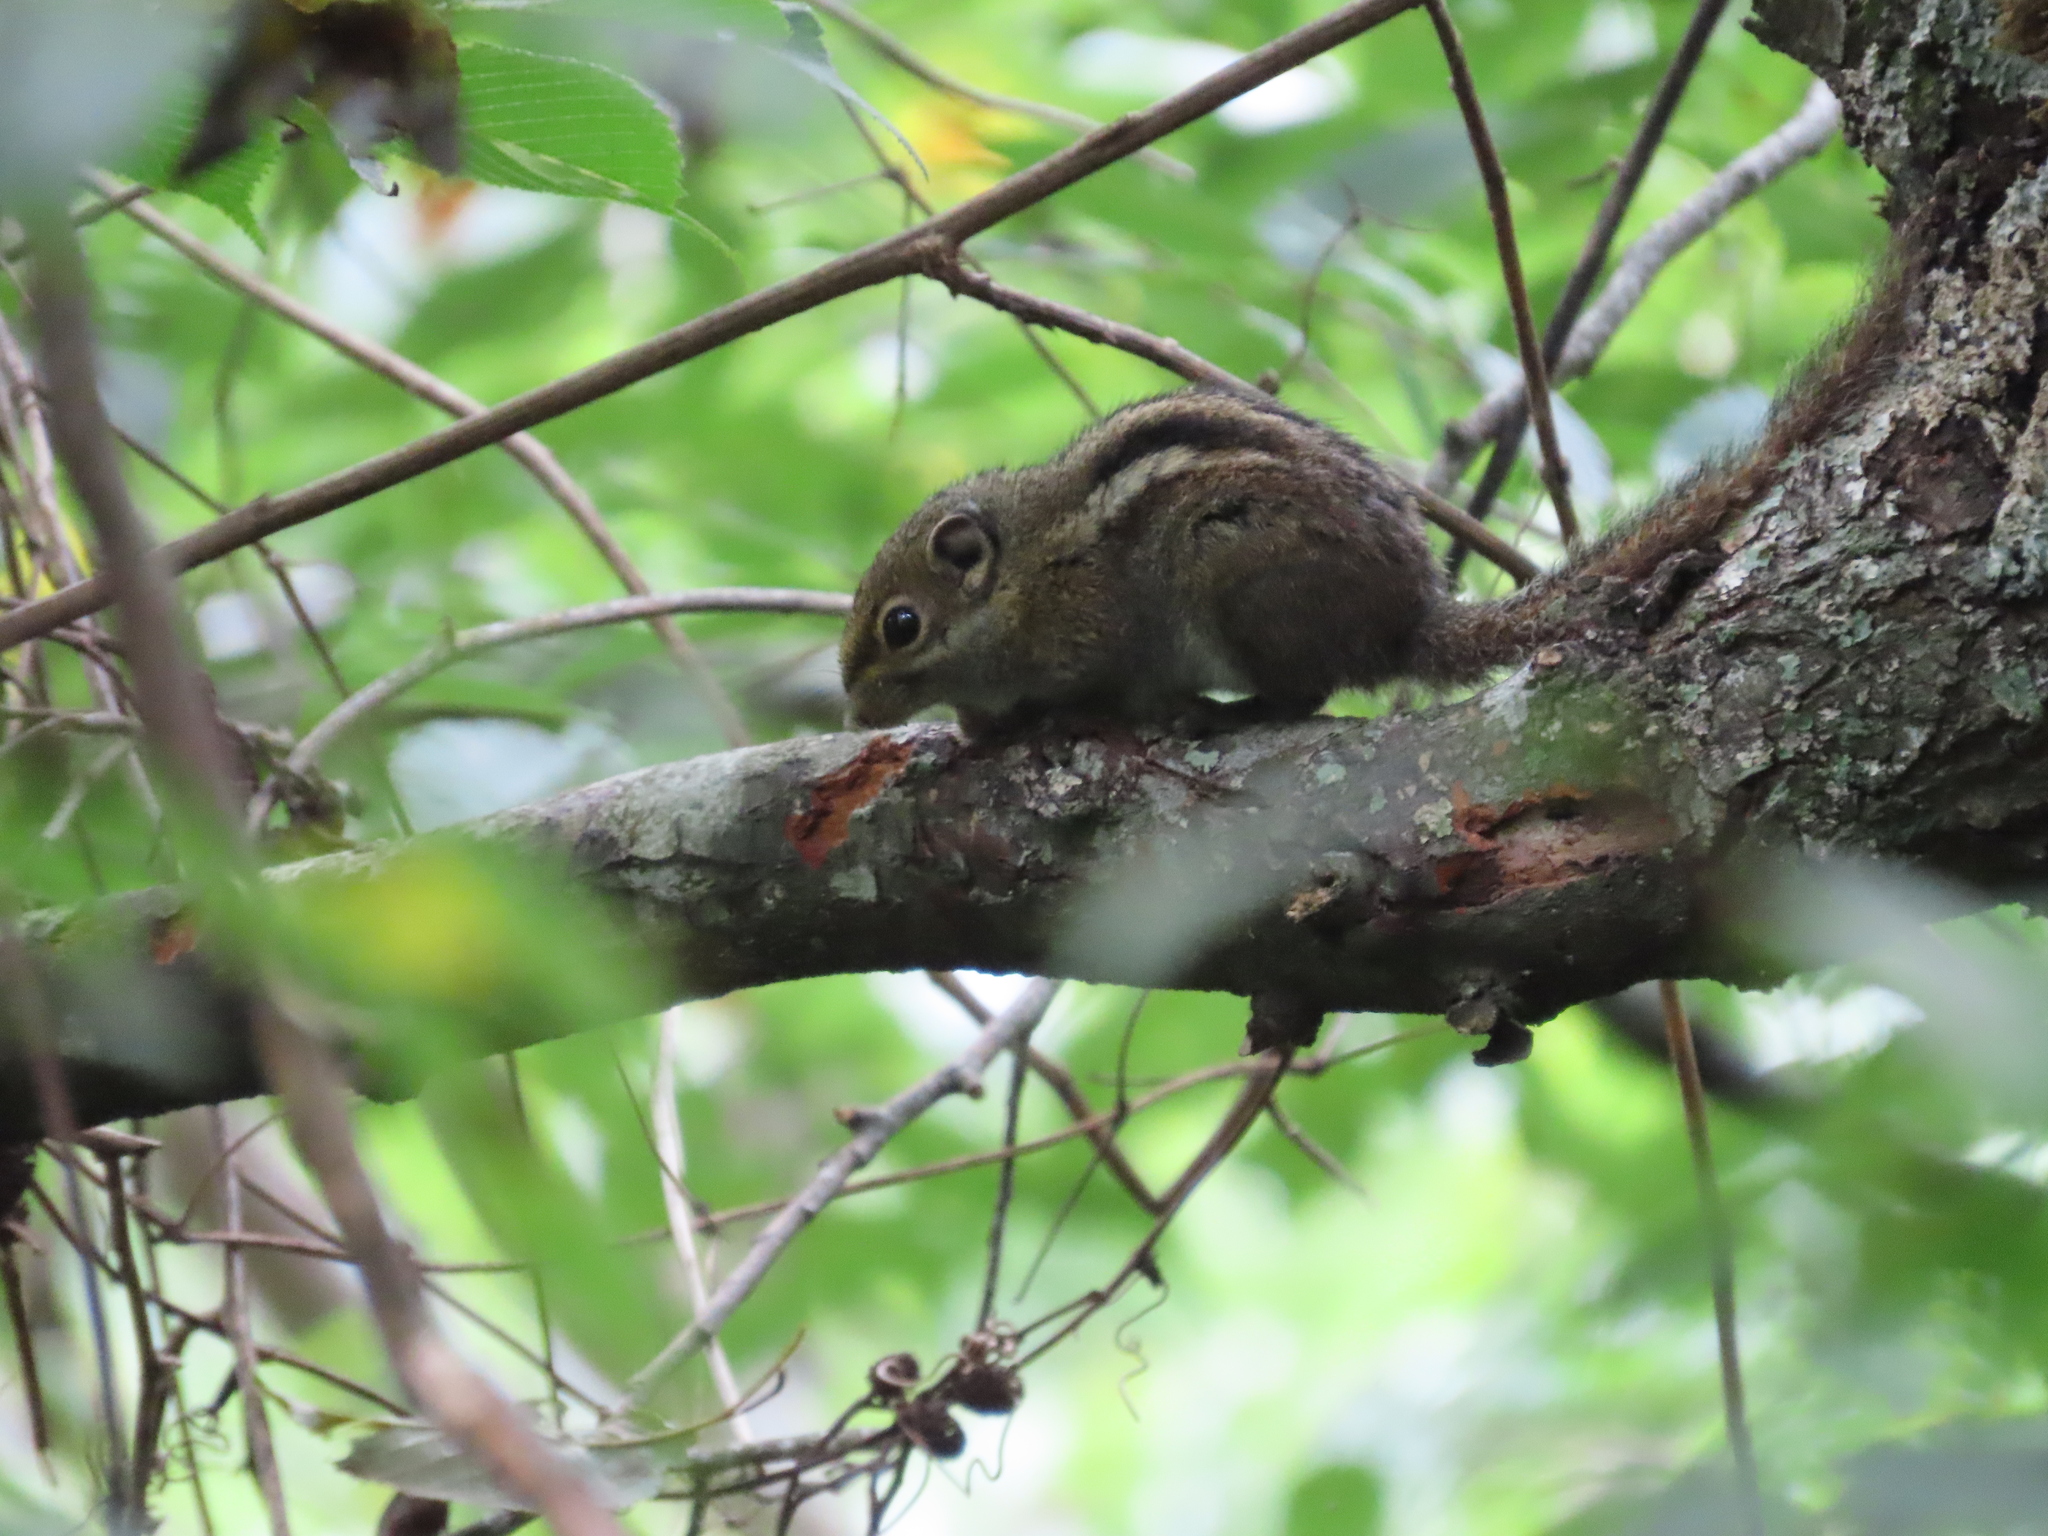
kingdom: Animalia
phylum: Chordata
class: Mammalia
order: Rodentia
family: Sciuridae
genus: Tamiops
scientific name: Tamiops maritimus
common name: Maritime striped squirrel
